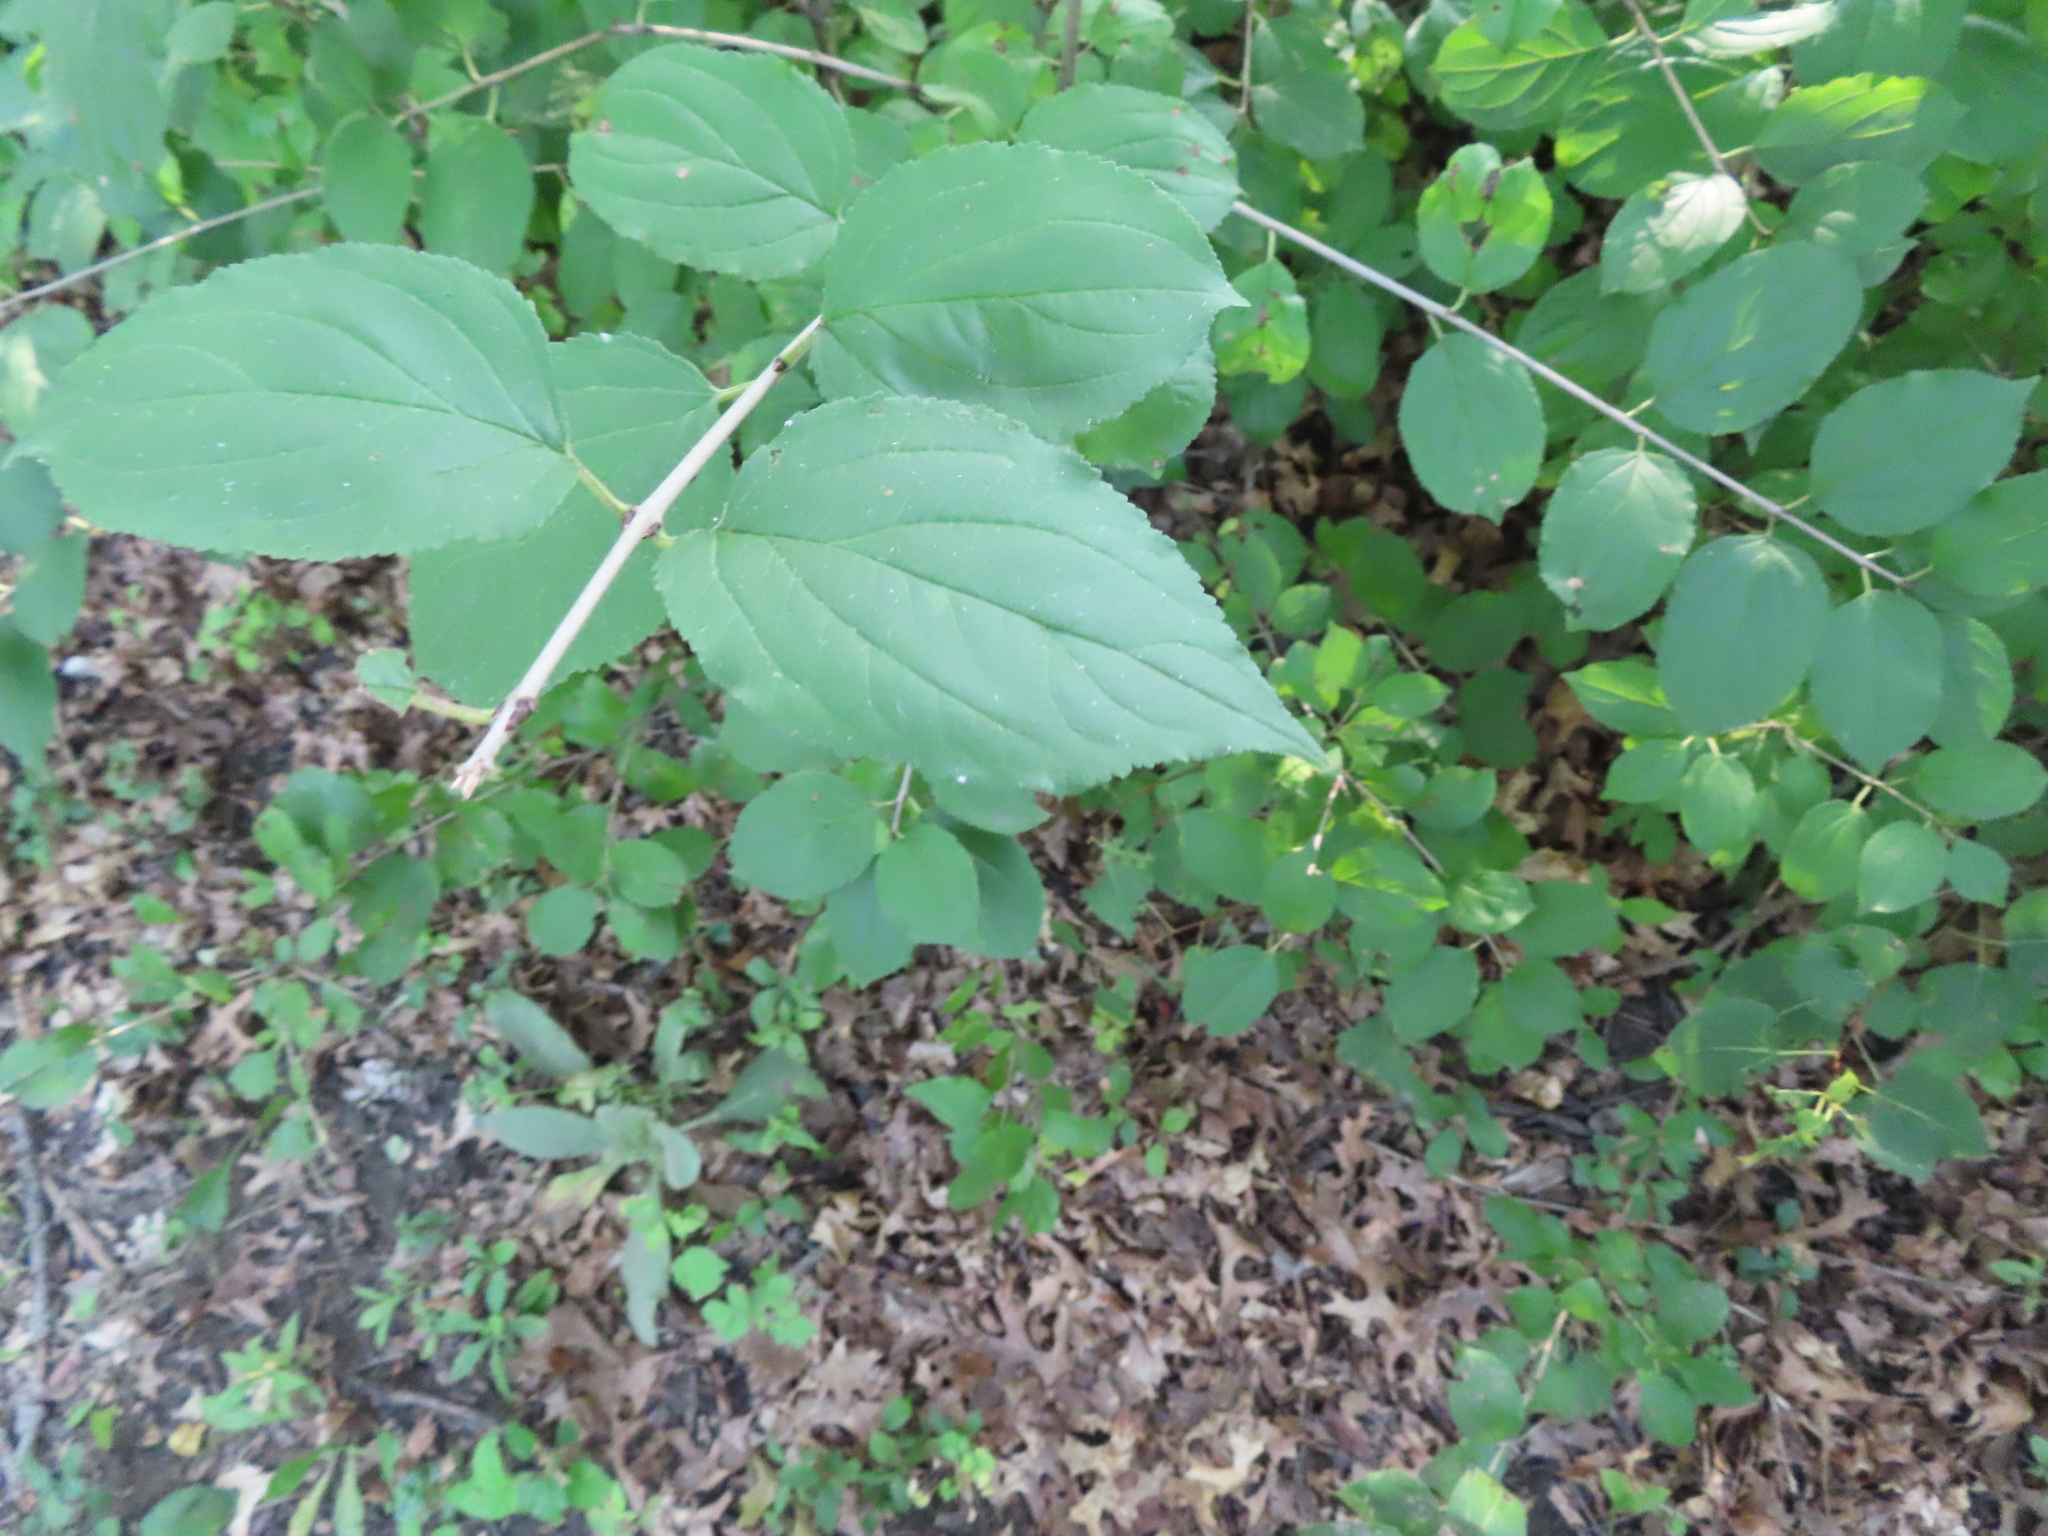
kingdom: Plantae
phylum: Tracheophyta
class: Magnoliopsida
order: Rosales
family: Rhamnaceae
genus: Rhamnus
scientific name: Rhamnus cathartica
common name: Common buckthorn
